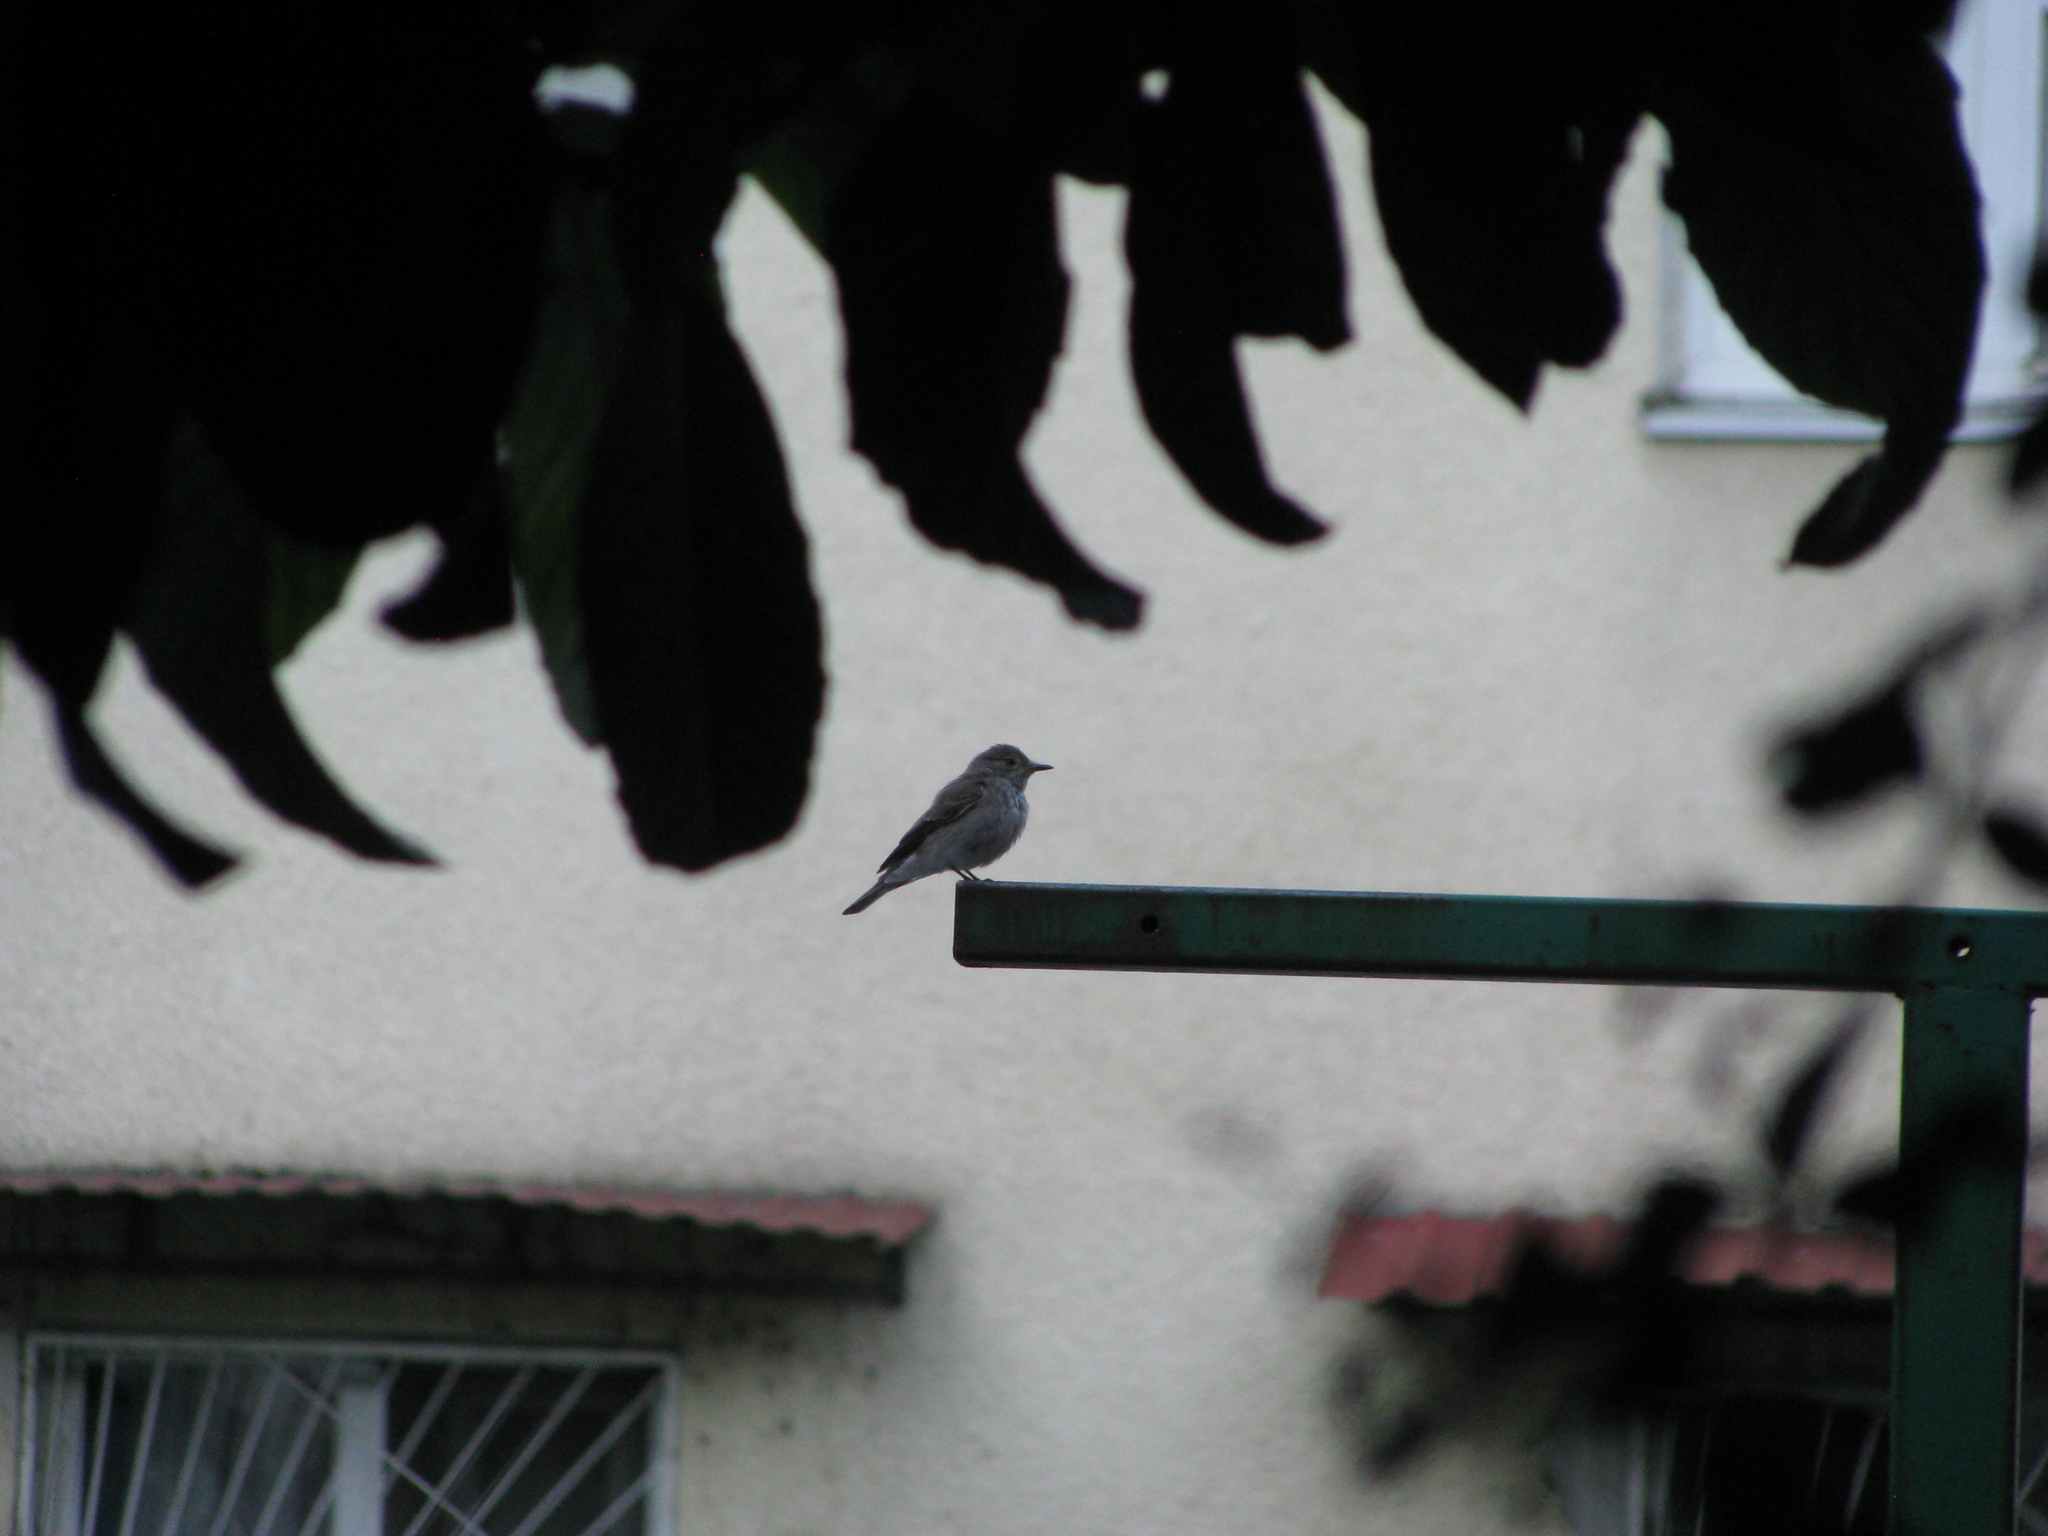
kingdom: Animalia
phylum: Chordata
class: Aves
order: Passeriformes
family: Muscicapidae
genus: Muscicapa
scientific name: Muscicapa striata
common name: Spotted flycatcher
